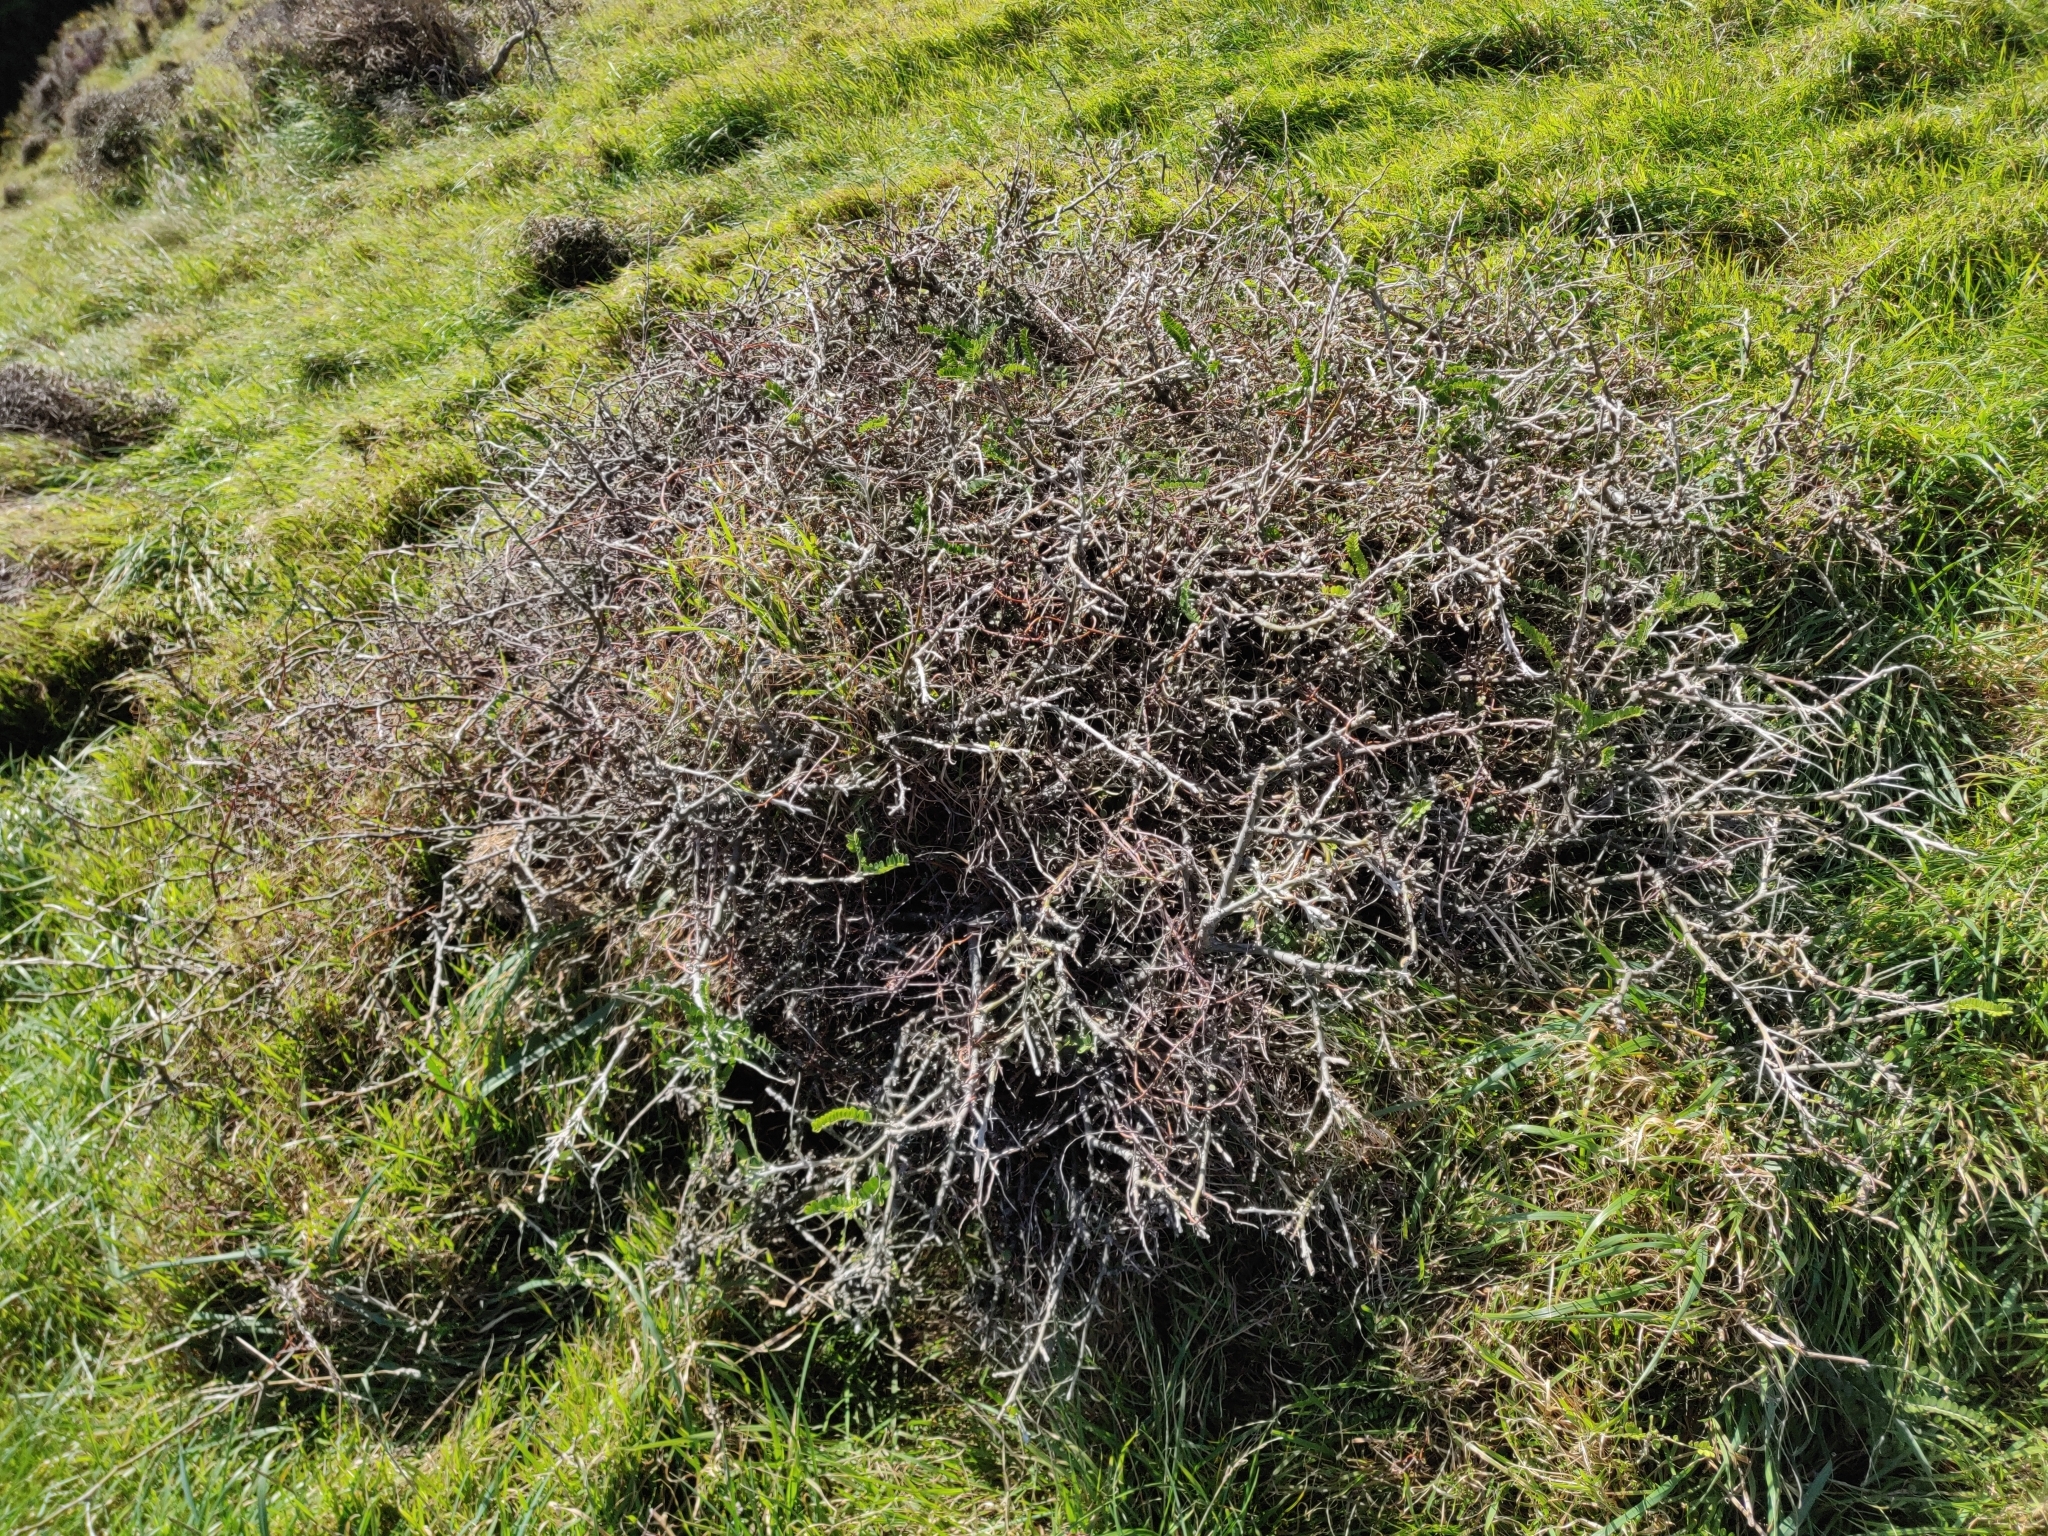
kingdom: Plantae
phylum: Tracheophyta
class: Magnoliopsida
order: Fabales
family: Fabaceae
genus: Sophora
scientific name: Sophora molloyi
